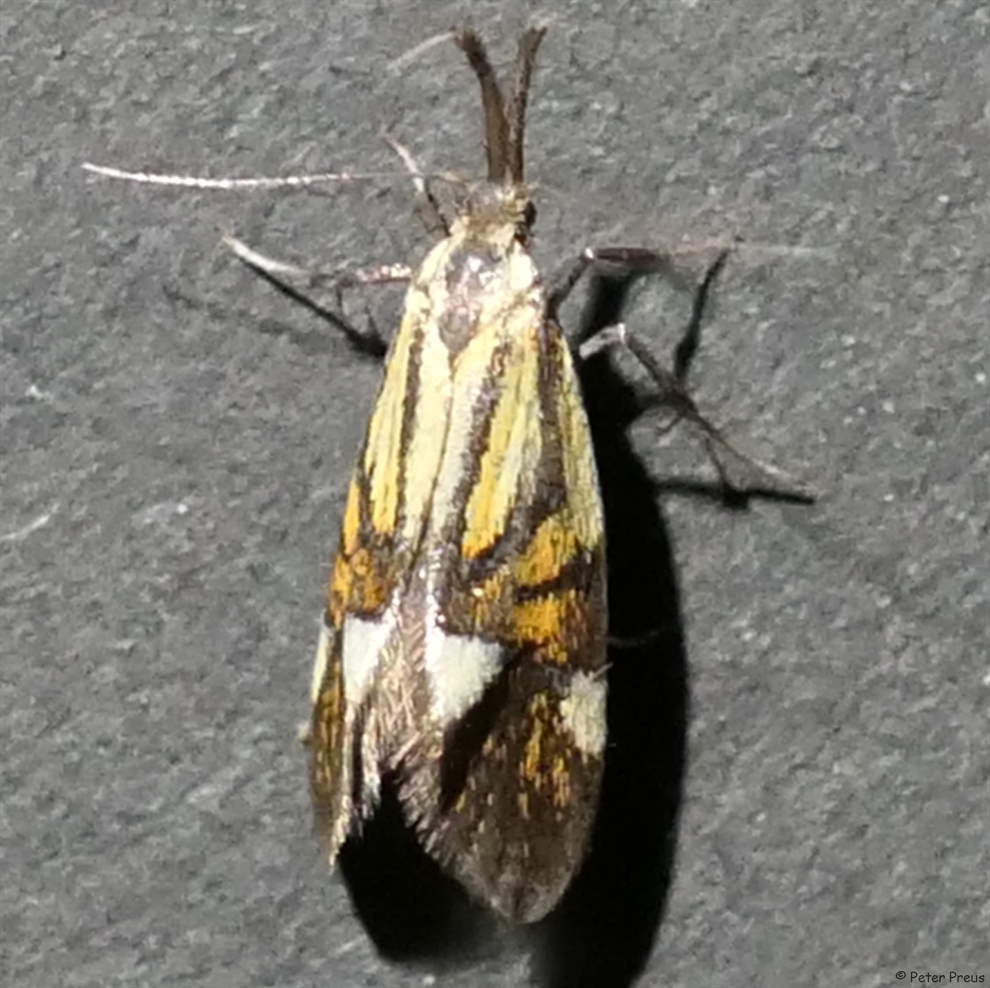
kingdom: Animalia
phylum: Arthropoda
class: Insecta
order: Lepidoptera
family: Oecophoridae
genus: Oecophora
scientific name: Oecophora Alabonia geoffrella
